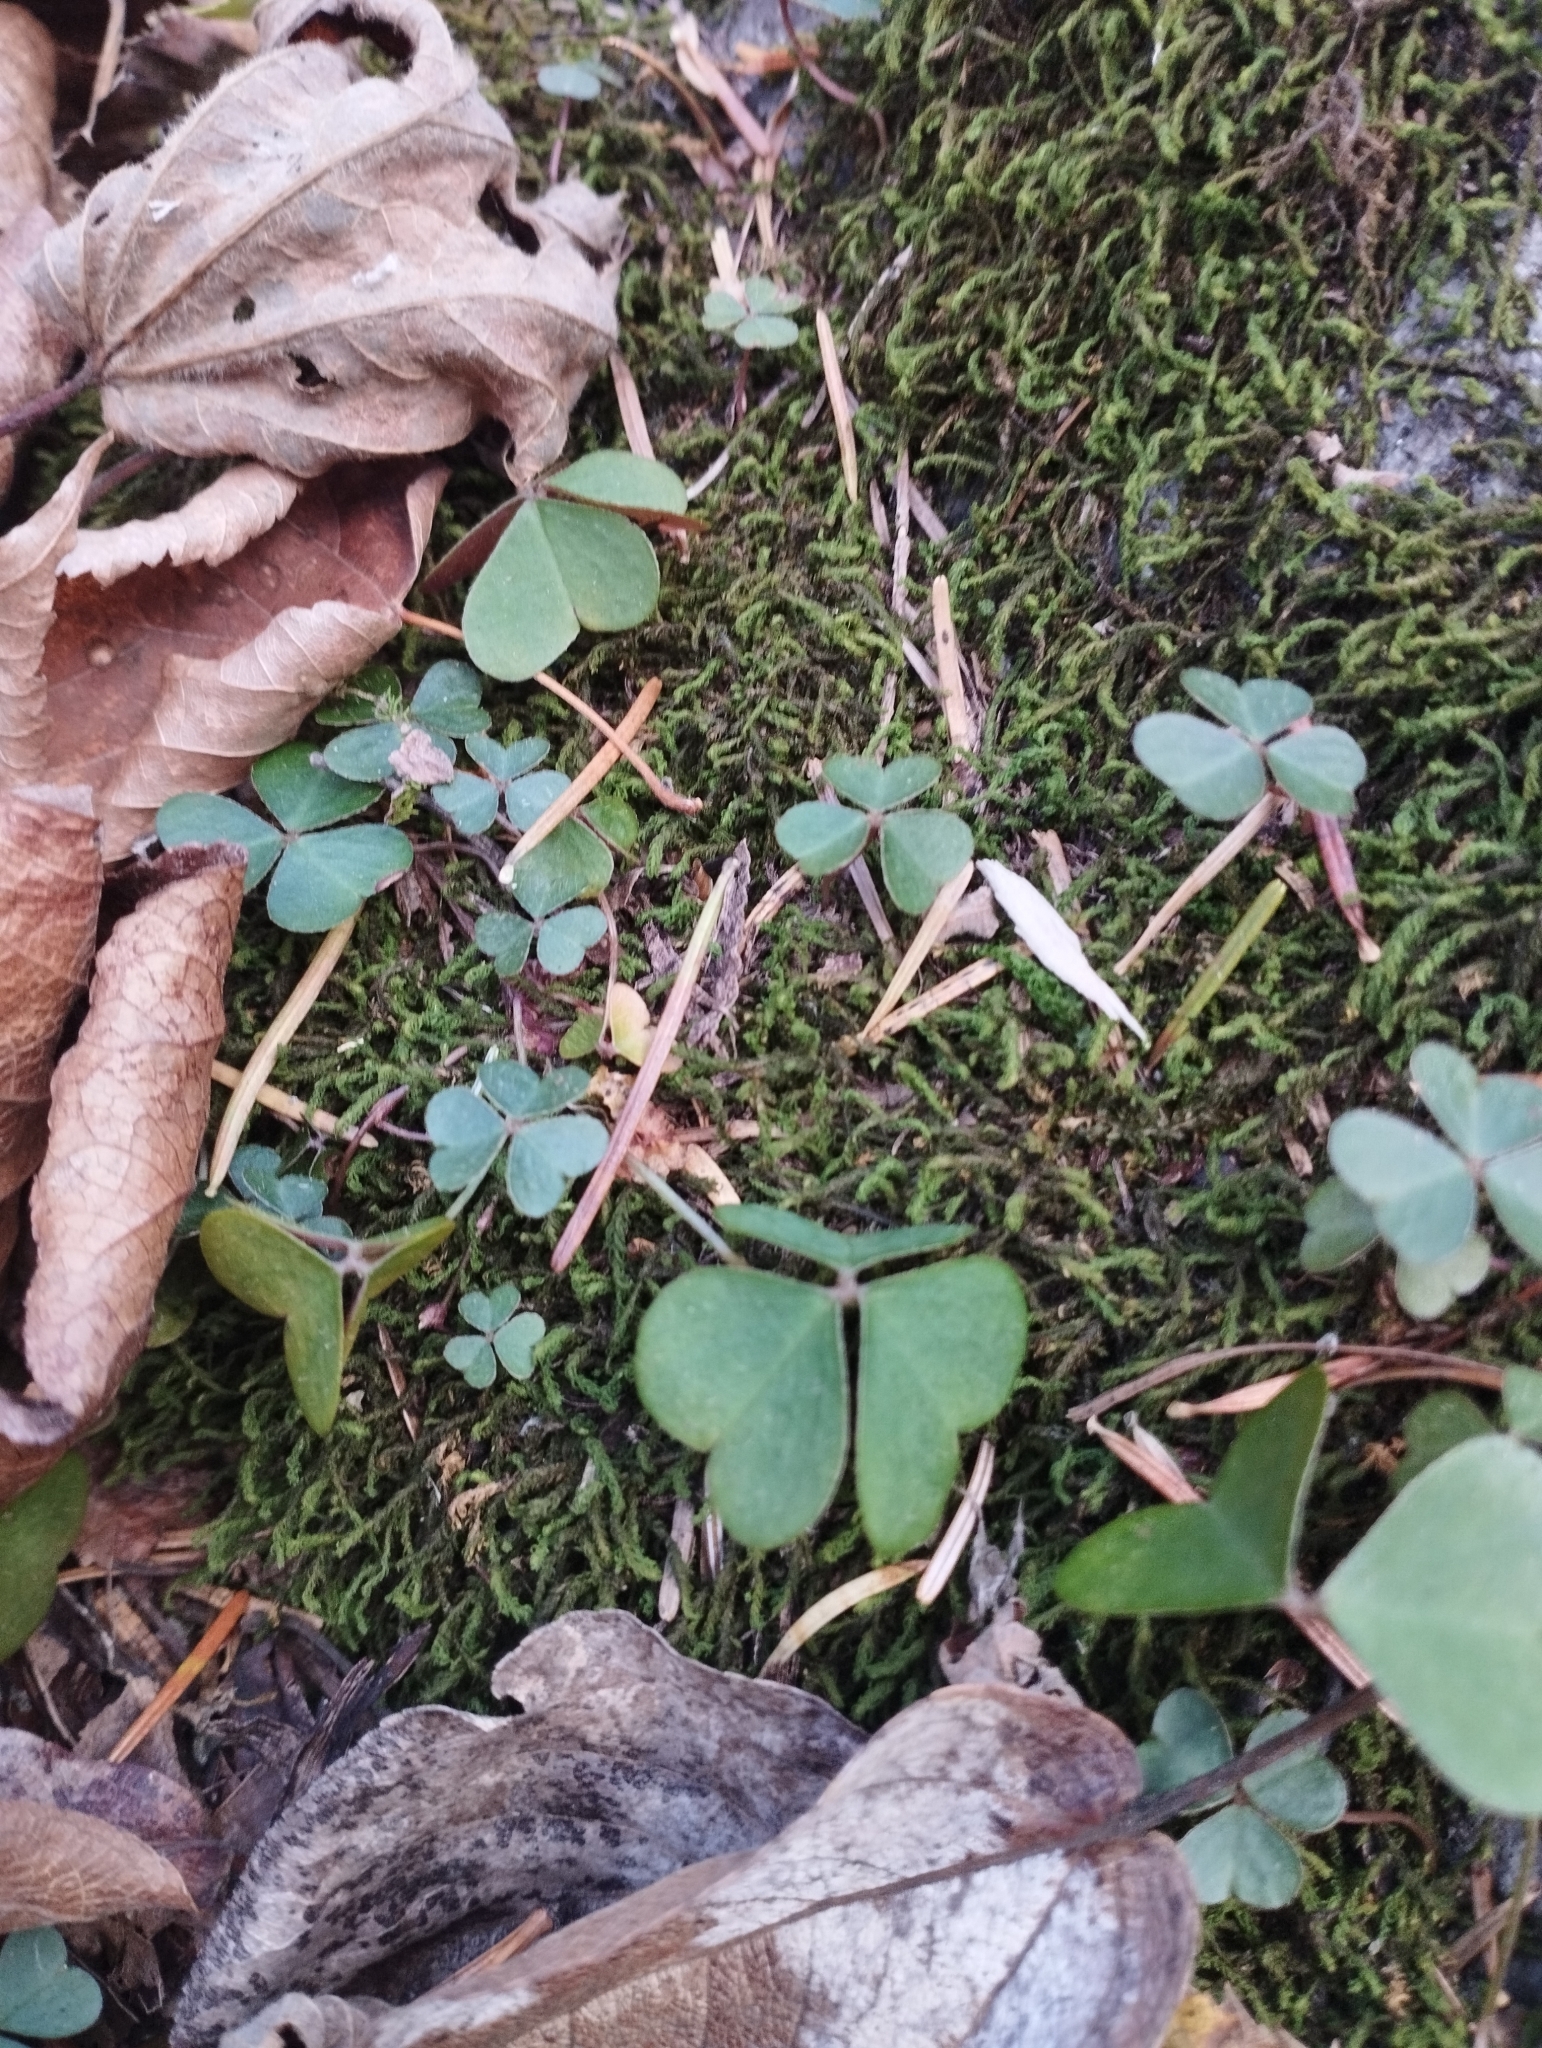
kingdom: Plantae
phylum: Tracheophyta
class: Magnoliopsida
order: Oxalidales
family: Oxalidaceae
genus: Oxalis
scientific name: Oxalis acetosella
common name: Wood-sorrel
